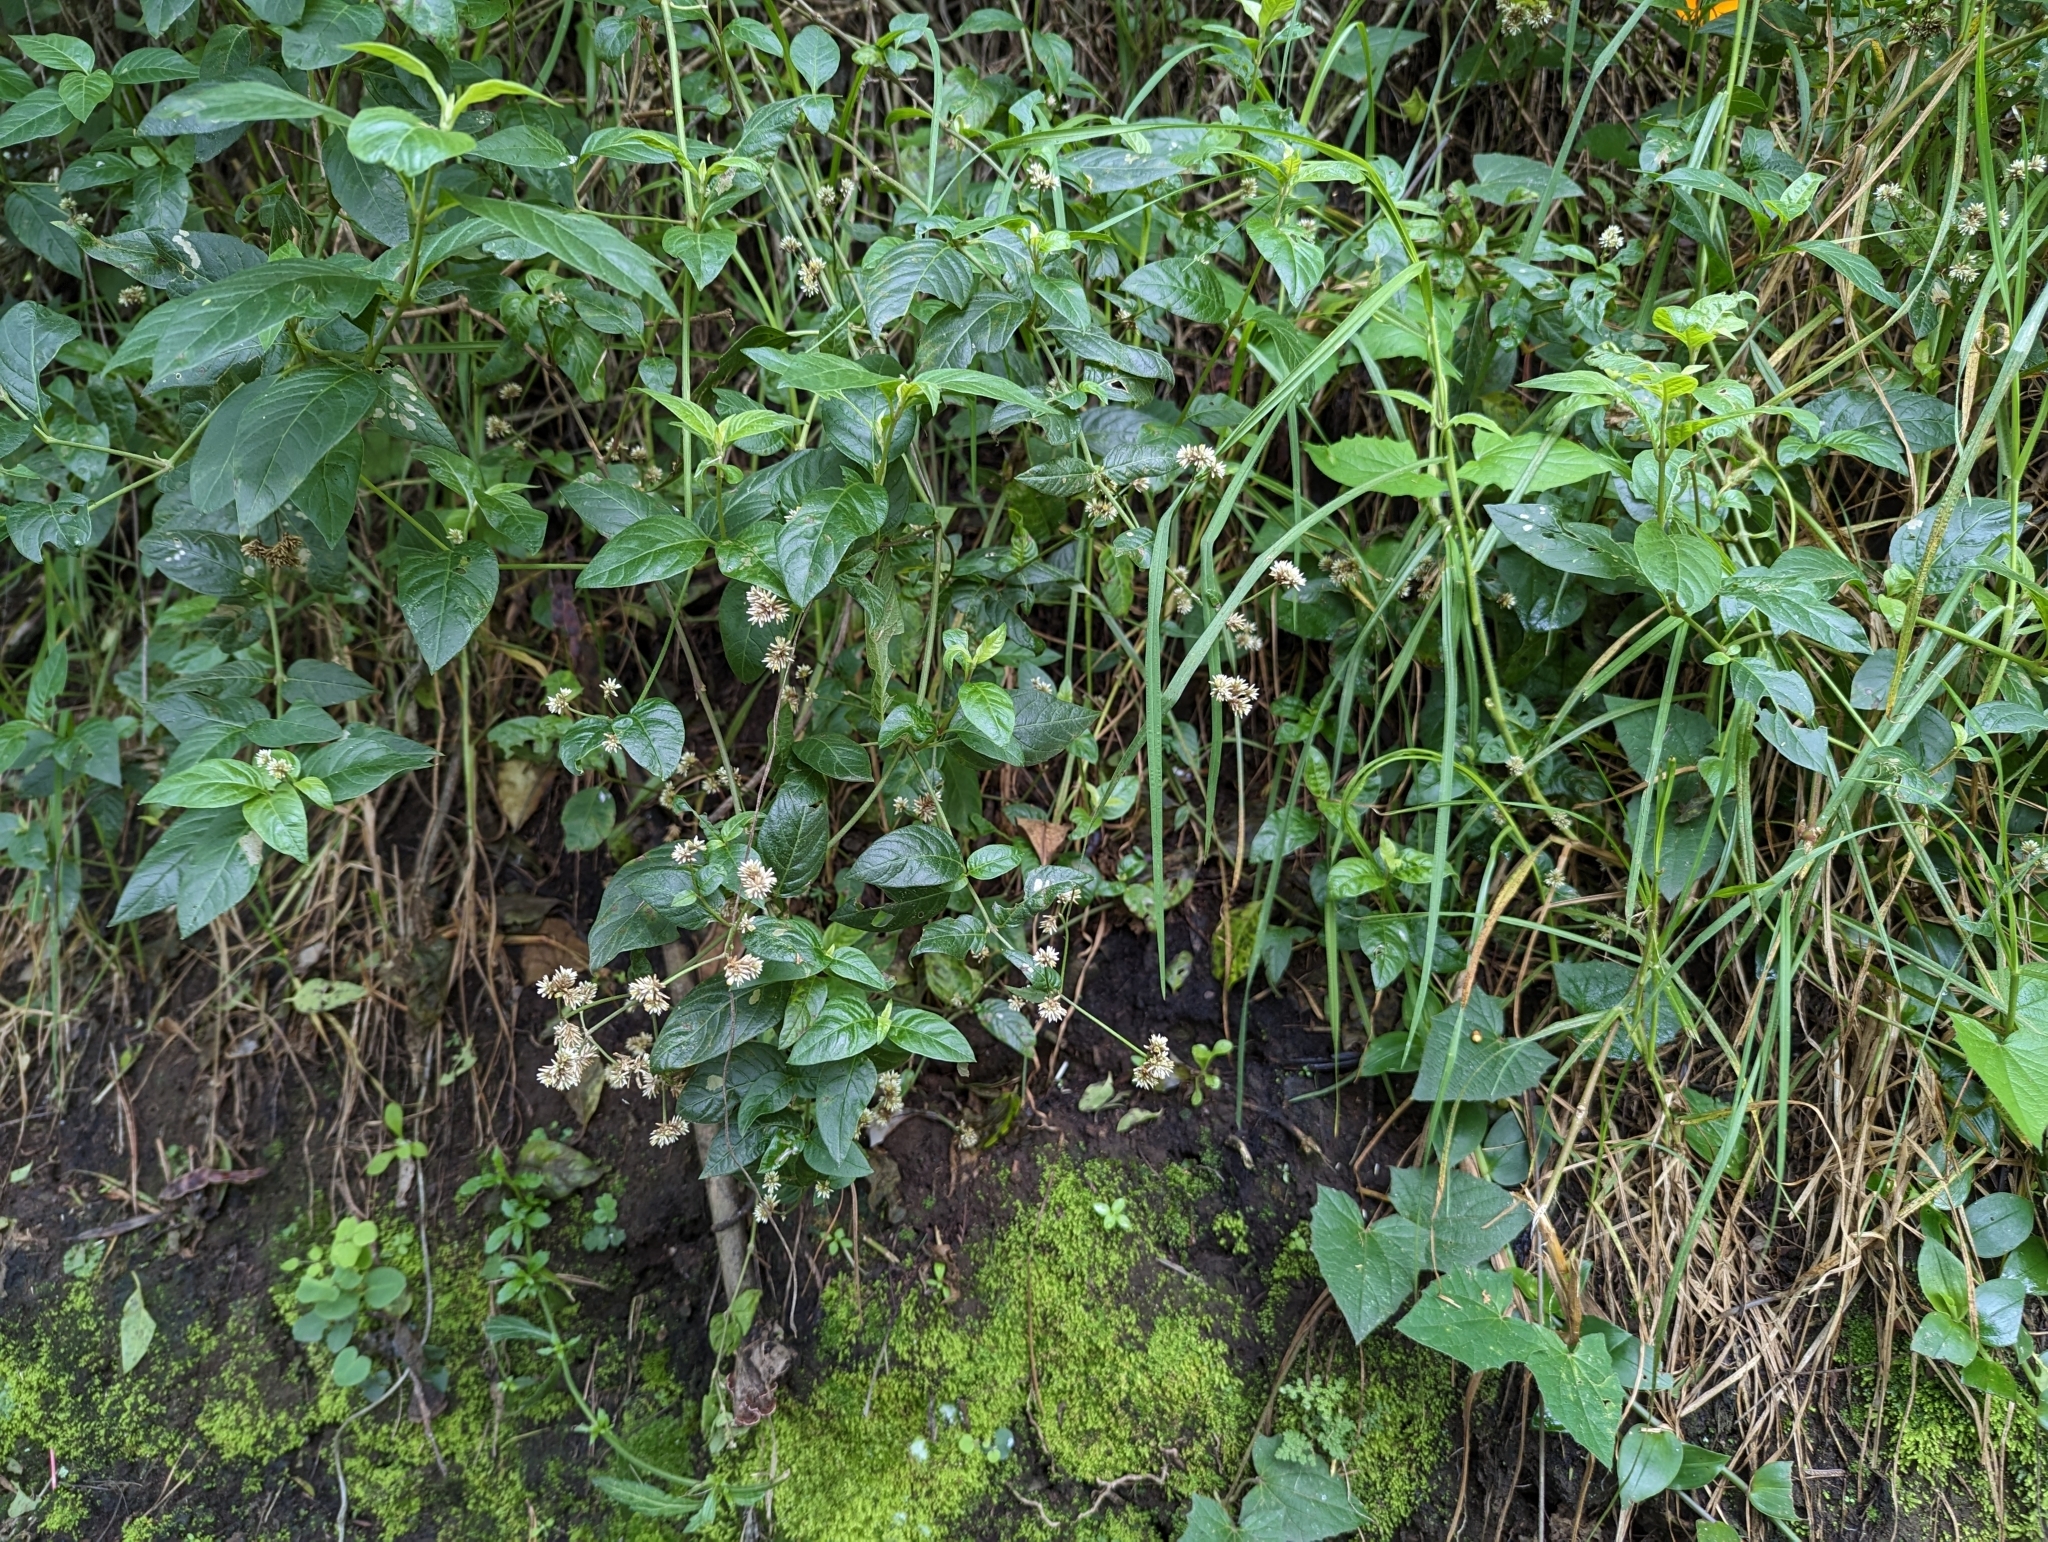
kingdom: Plantae
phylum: Tracheophyta
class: Magnoliopsida
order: Caryophyllales
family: Amaranthaceae
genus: Alternanthera
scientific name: Alternanthera porrigens
